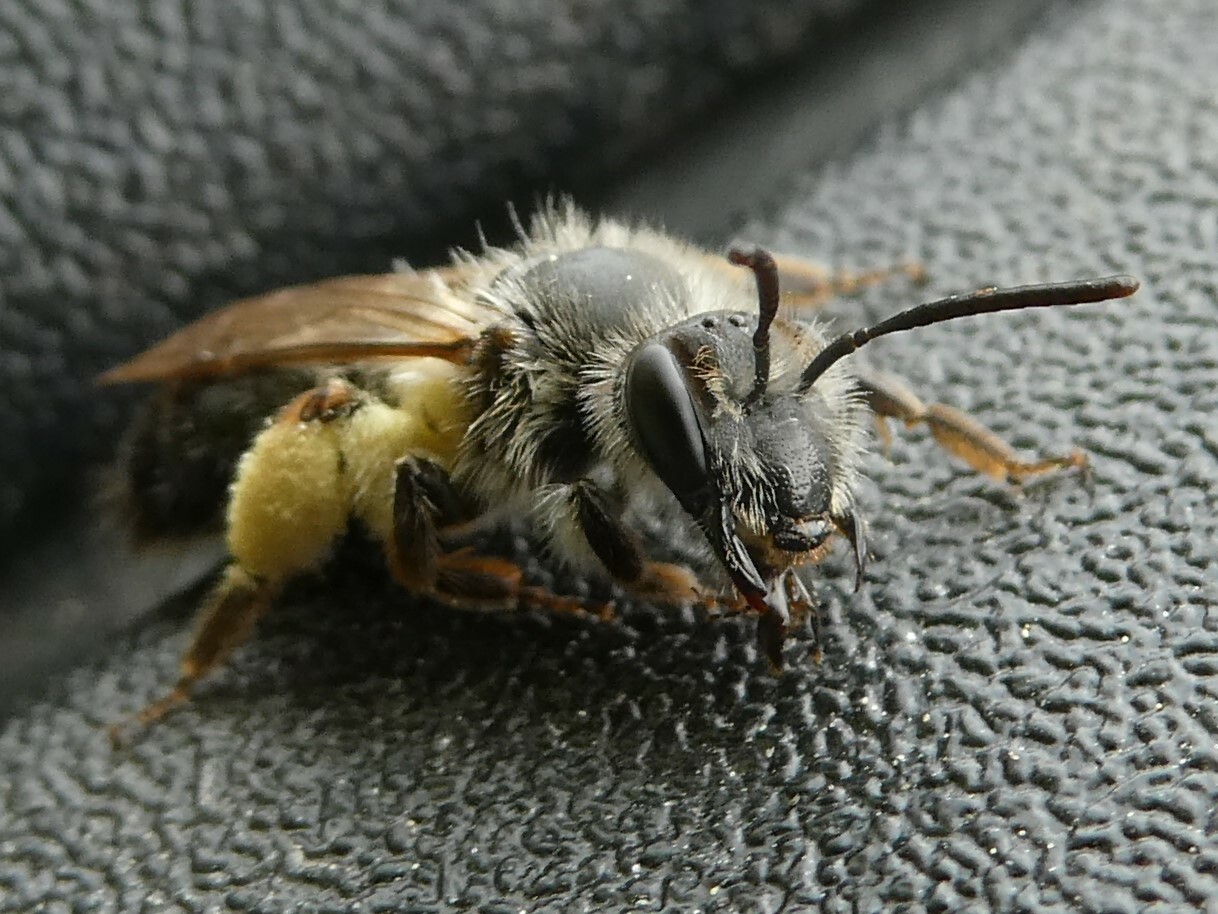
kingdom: Animalia
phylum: Arthropoda
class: Insecta
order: Hymenoptera
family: Andrenidae
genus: Andrena
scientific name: Andrena rufosignata
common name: Brown-fovea miner
